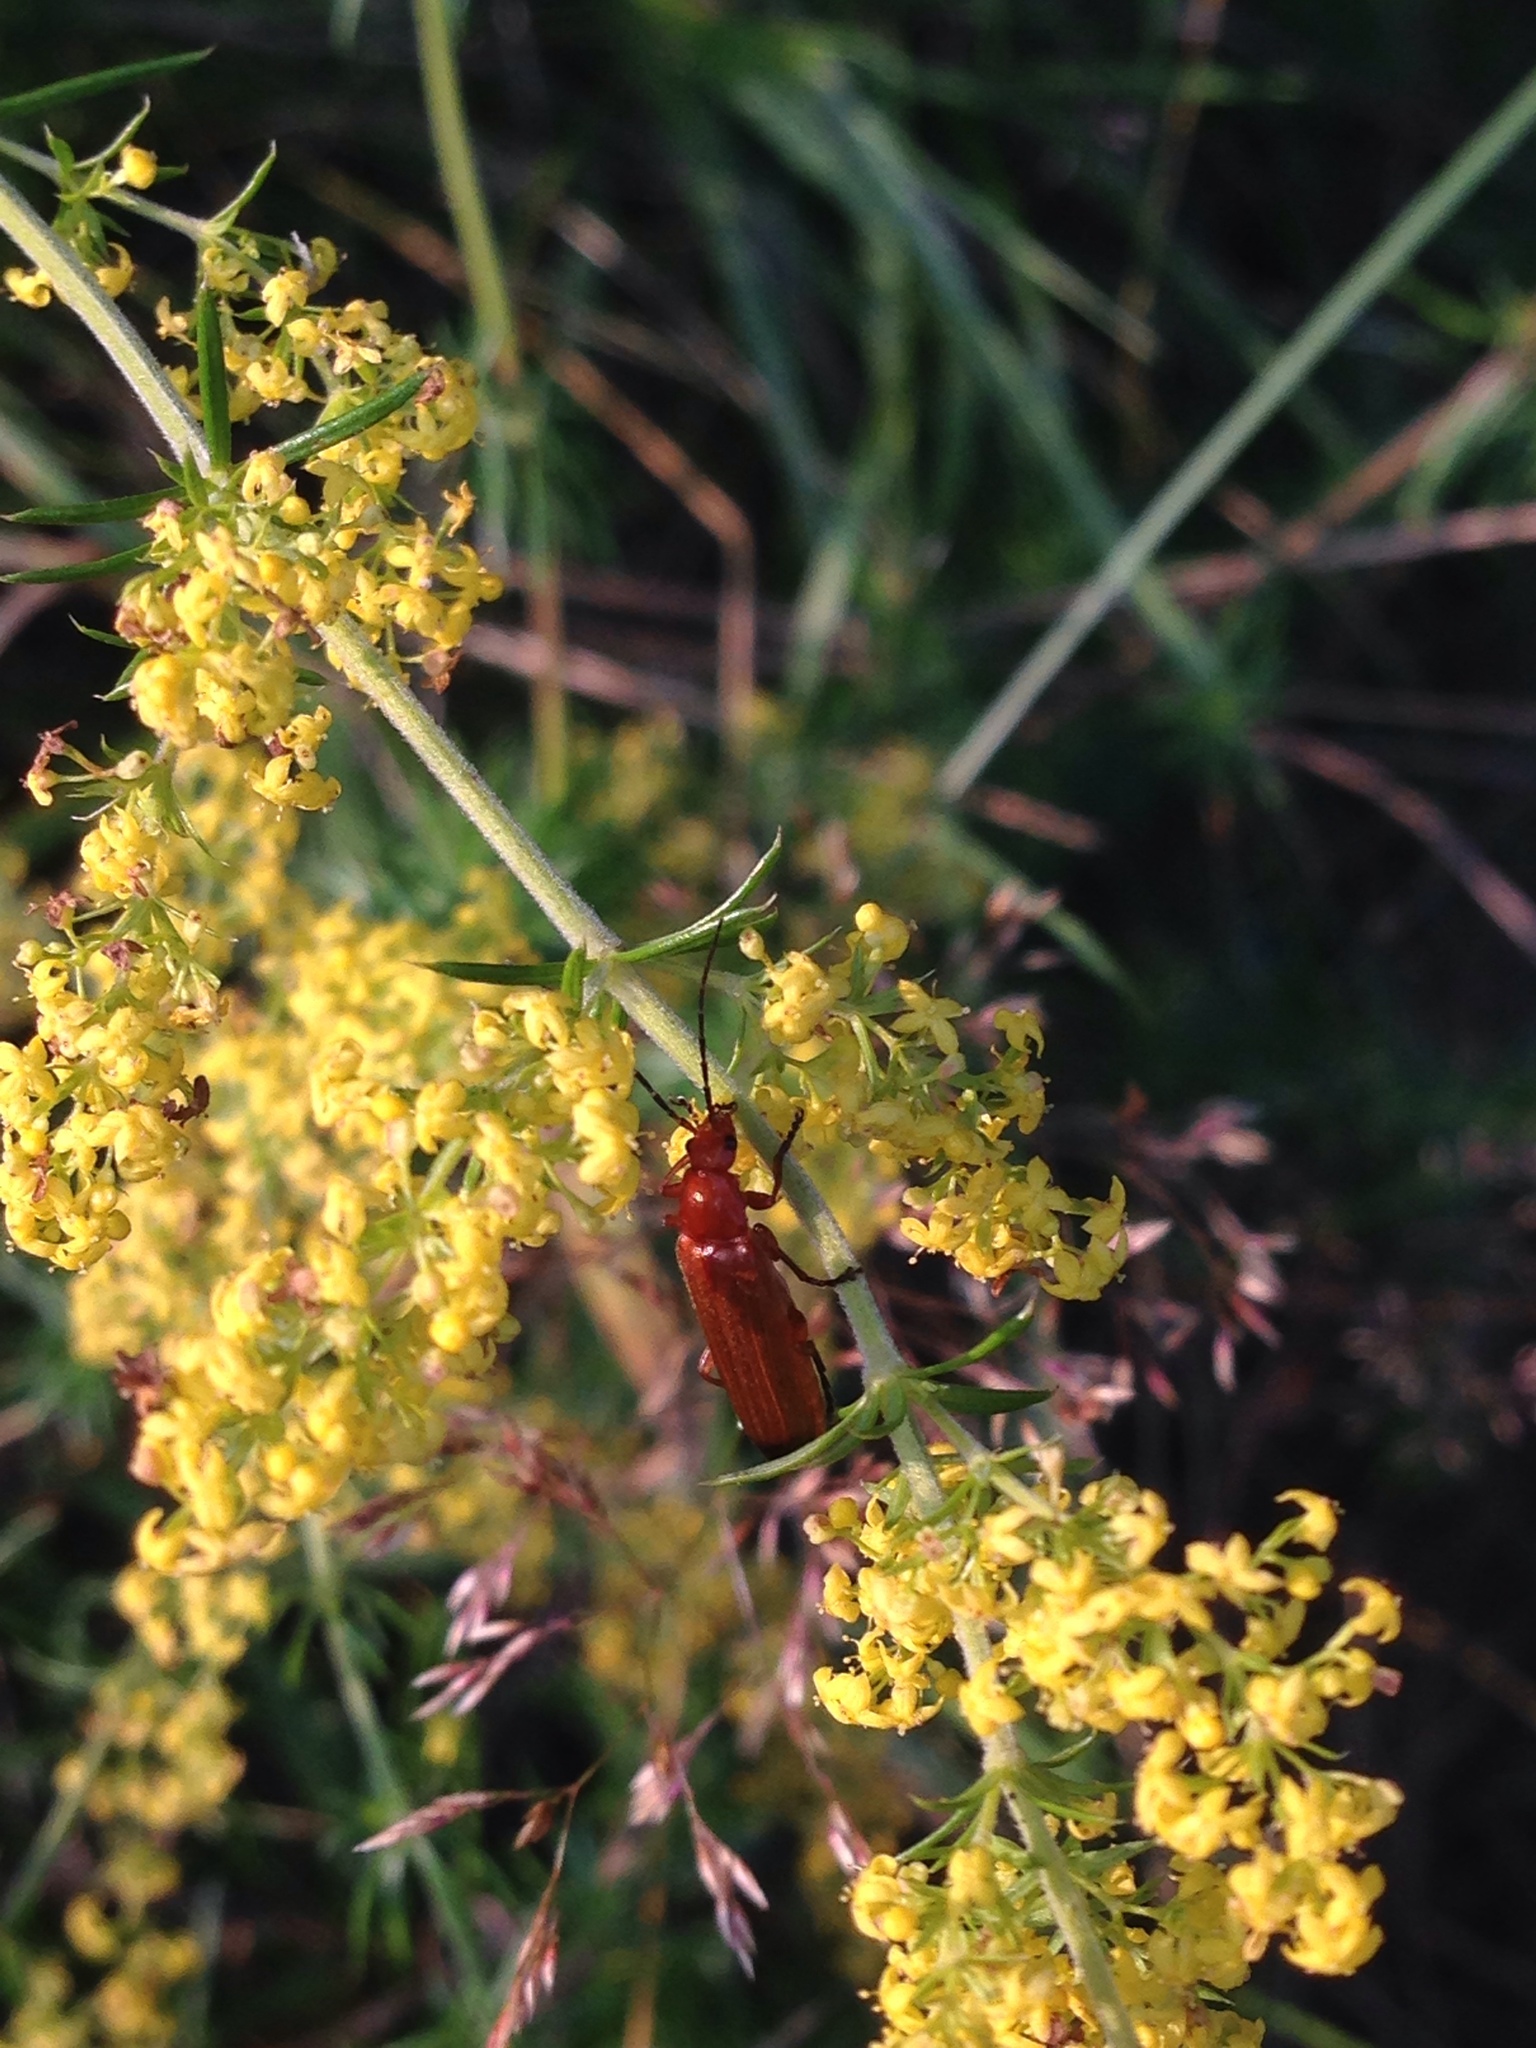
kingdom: Animalia
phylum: Arthropoda
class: Insecta
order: Coleoptera
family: Cantharidae
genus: Rhagonycha
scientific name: Rhagonycha fulva
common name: Common red soldier beetle
